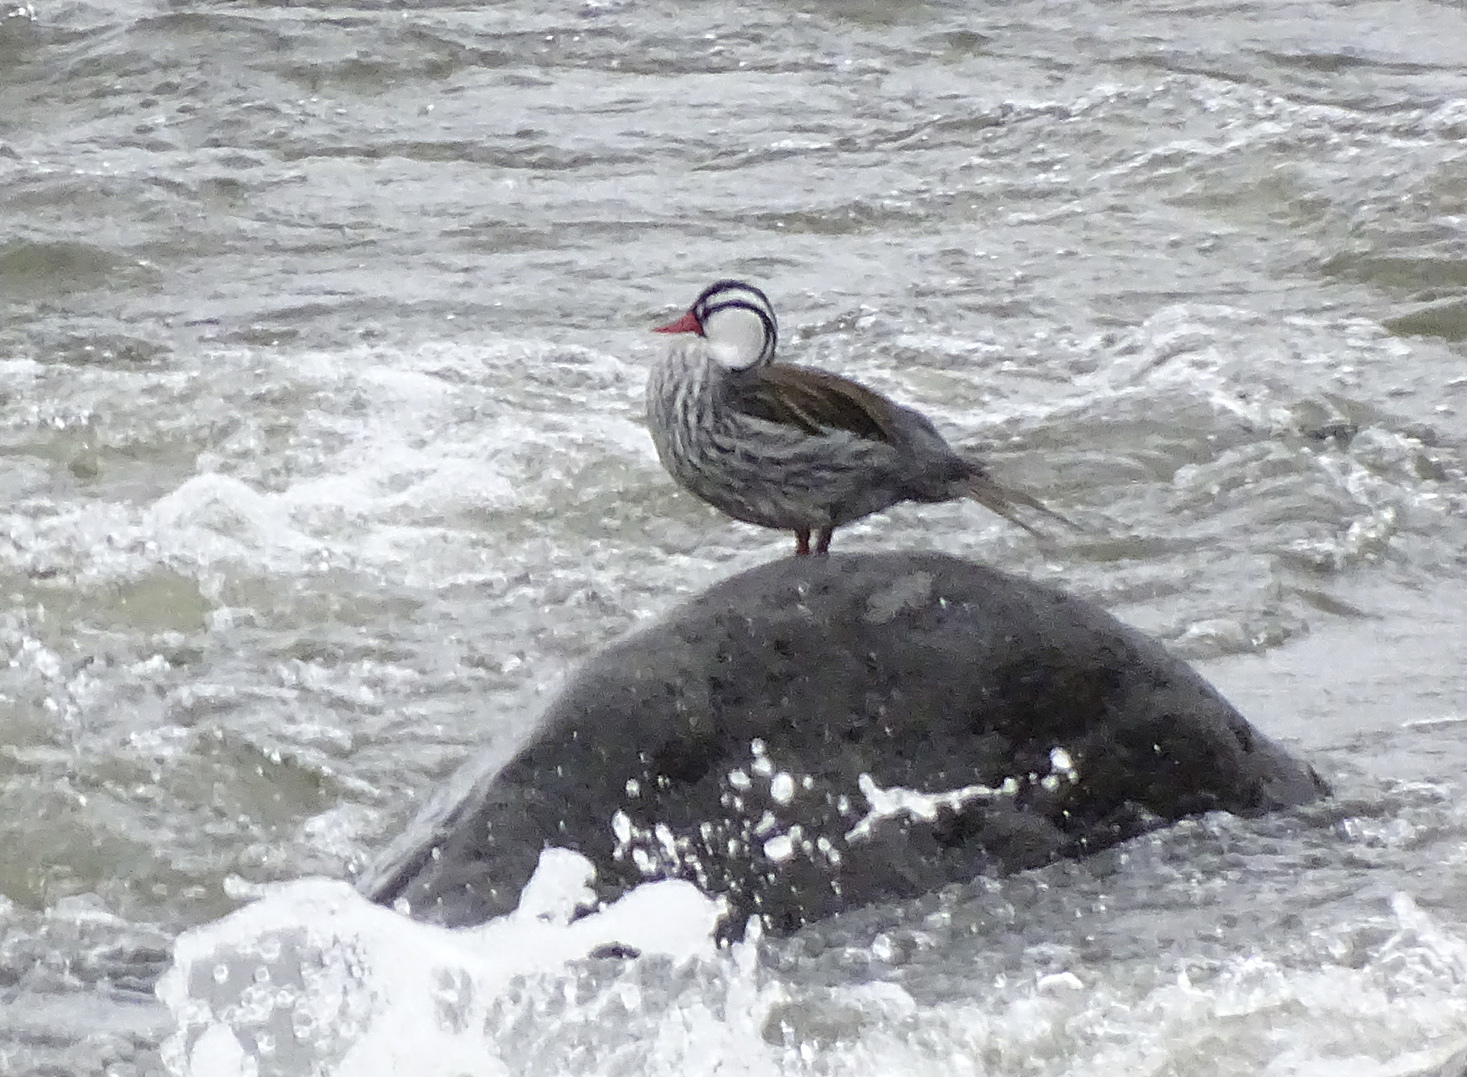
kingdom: Animalia
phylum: Chordata
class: Aves
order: Anseriformes
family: Anatidae
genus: Merganetta
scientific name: Merganetta armata
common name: Torrent duck
